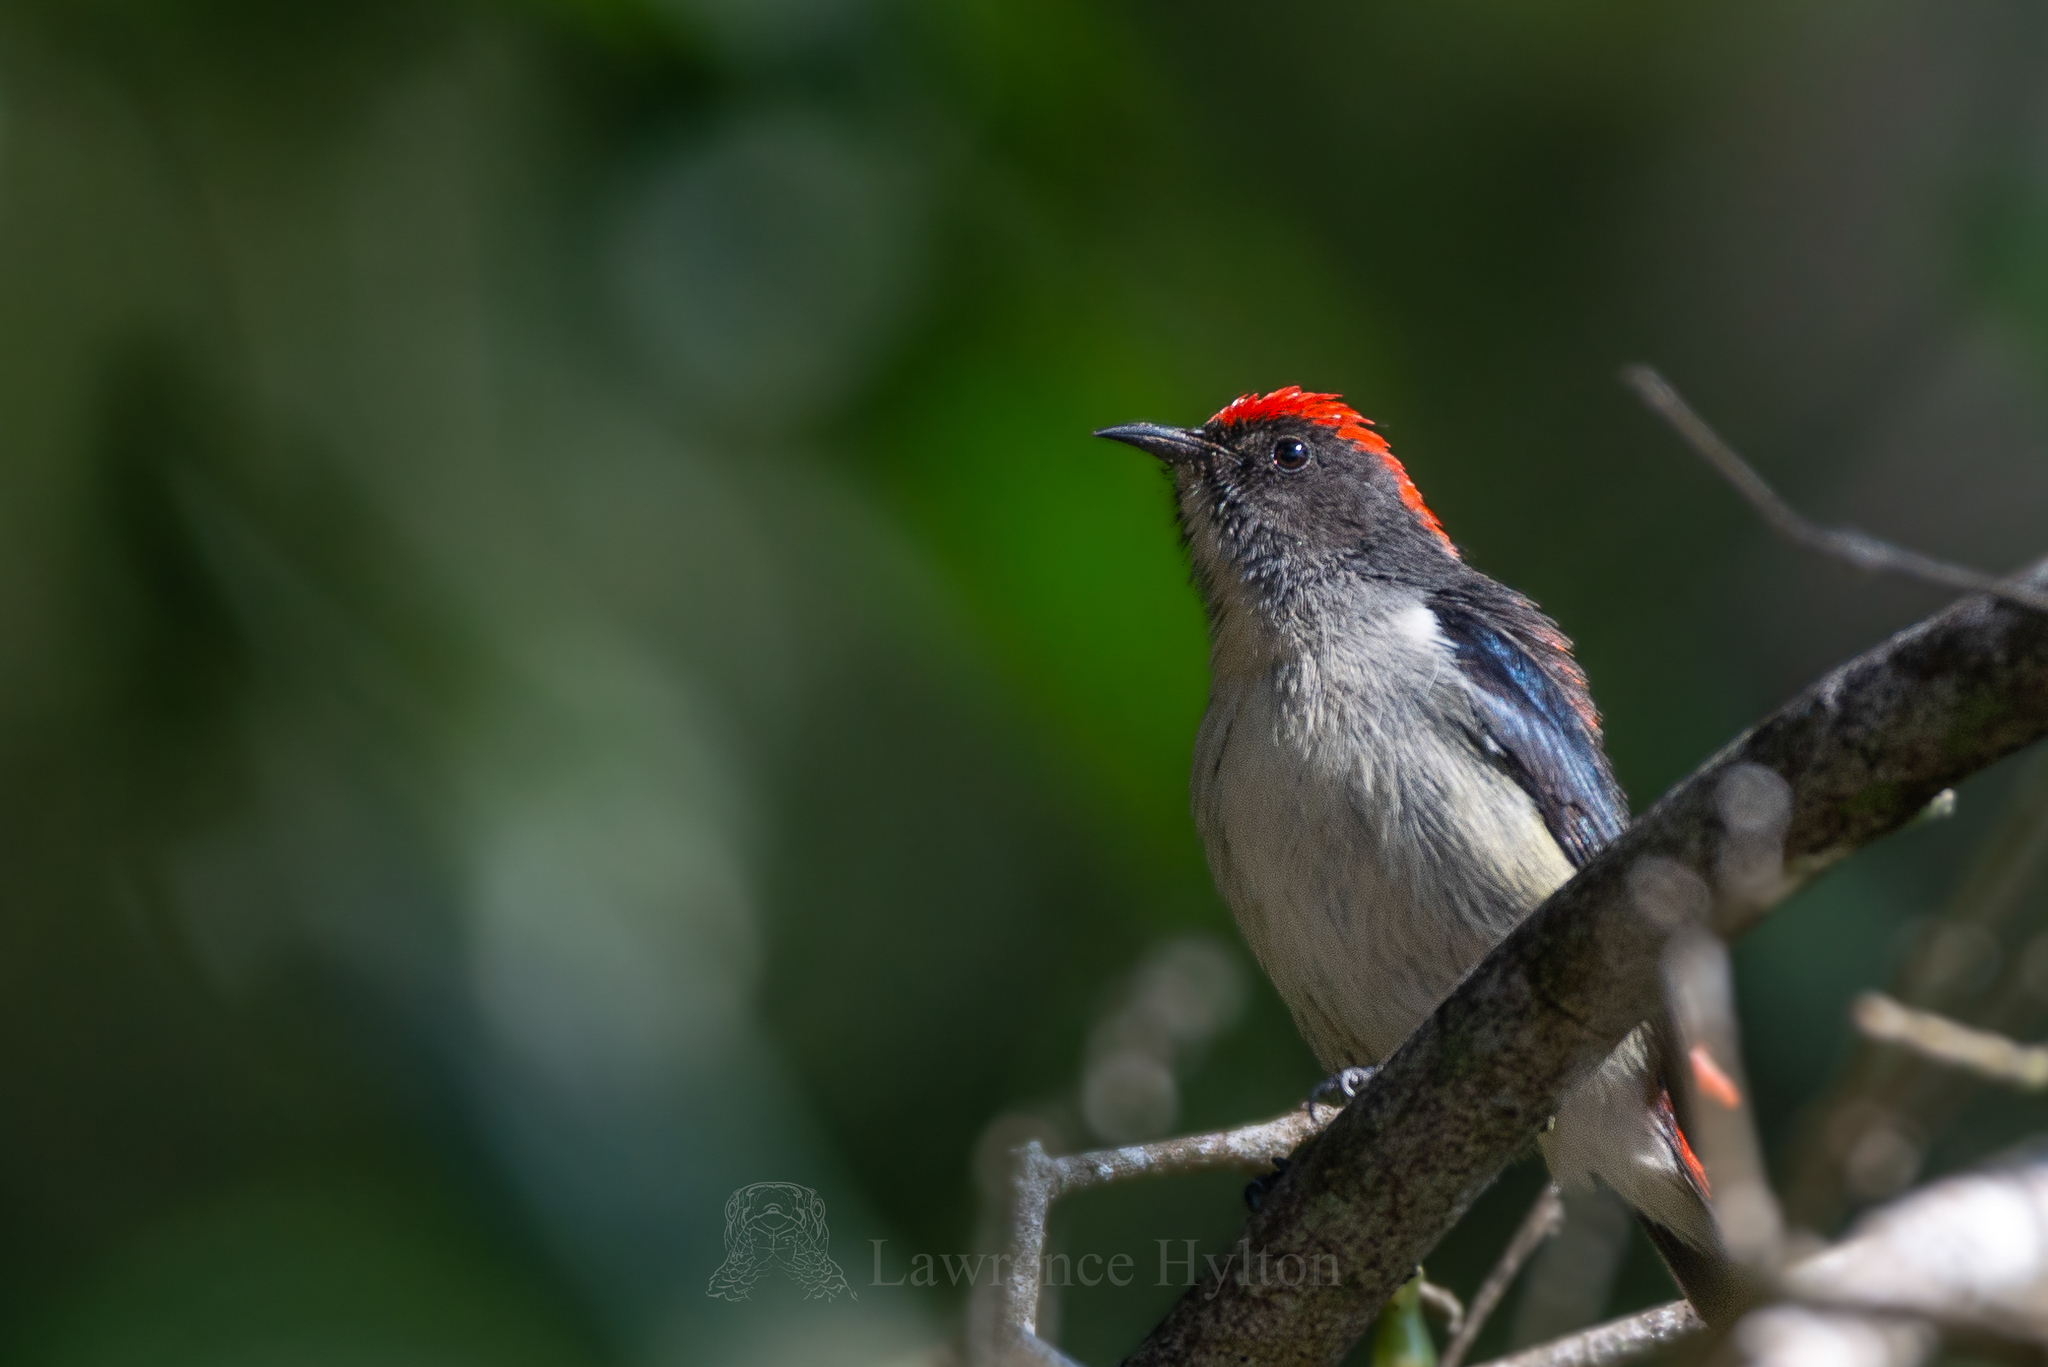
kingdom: Animalia
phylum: Chordata
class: Aves
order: Passeriformes
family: Dicaeidae
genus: Dicaeum
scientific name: Dicaeum cruentatum
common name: Scarlet-backed flowerpecker
